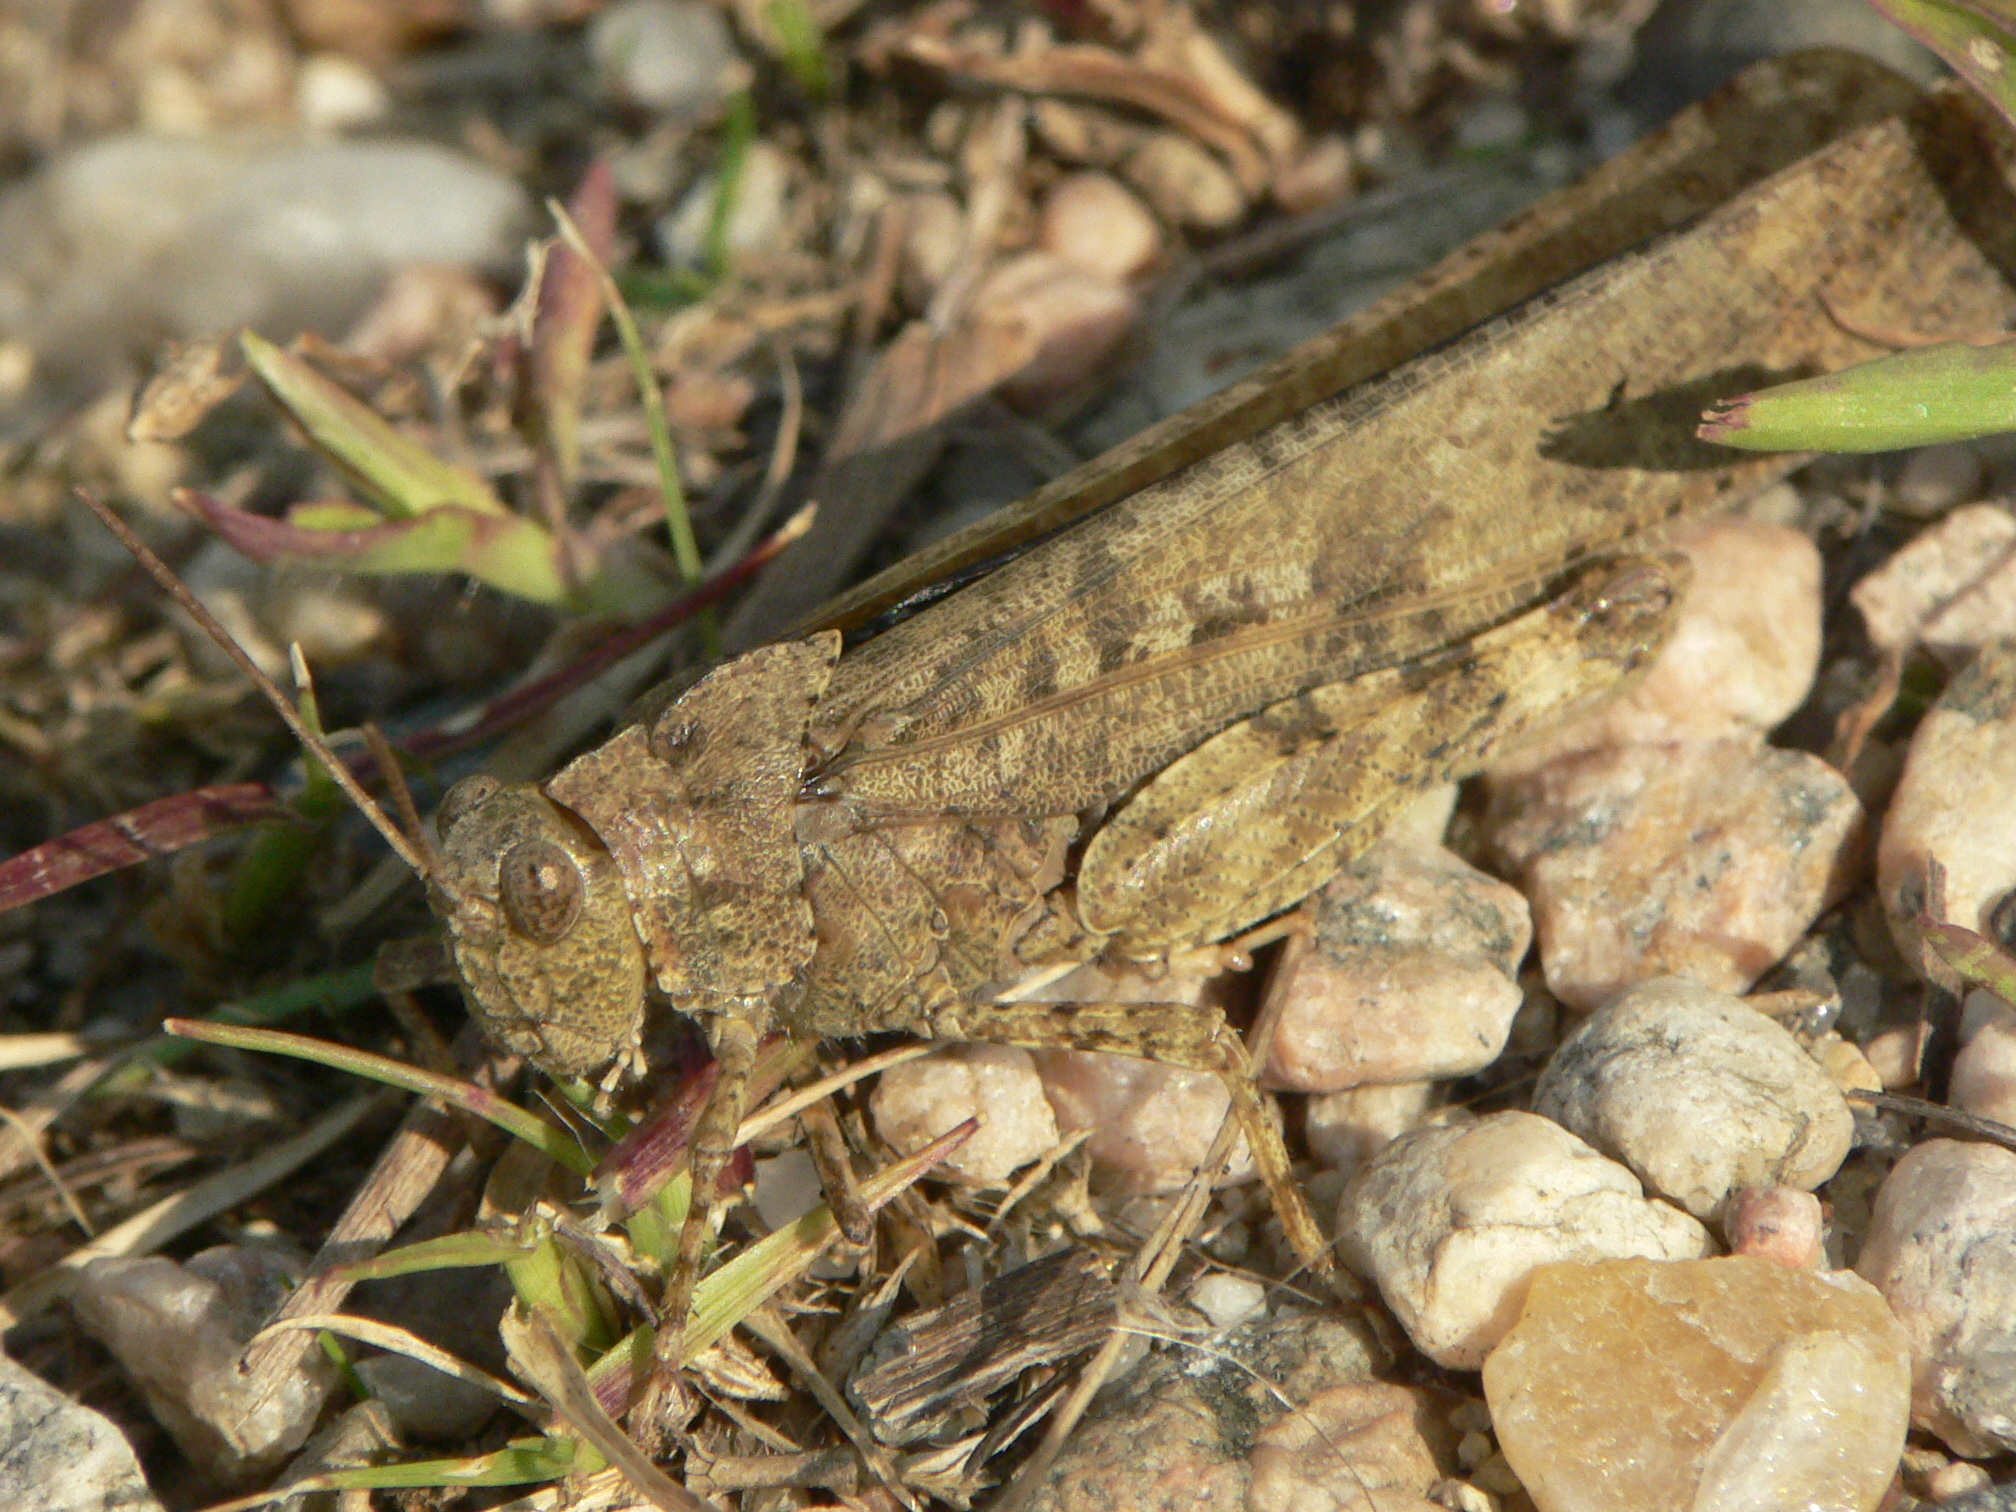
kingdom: Animalia
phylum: Arthropoda
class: Insecta
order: Orthoptera
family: Acrididae
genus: Dissosteira
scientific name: Dissosteira carolina
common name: Carolina grasshopper
